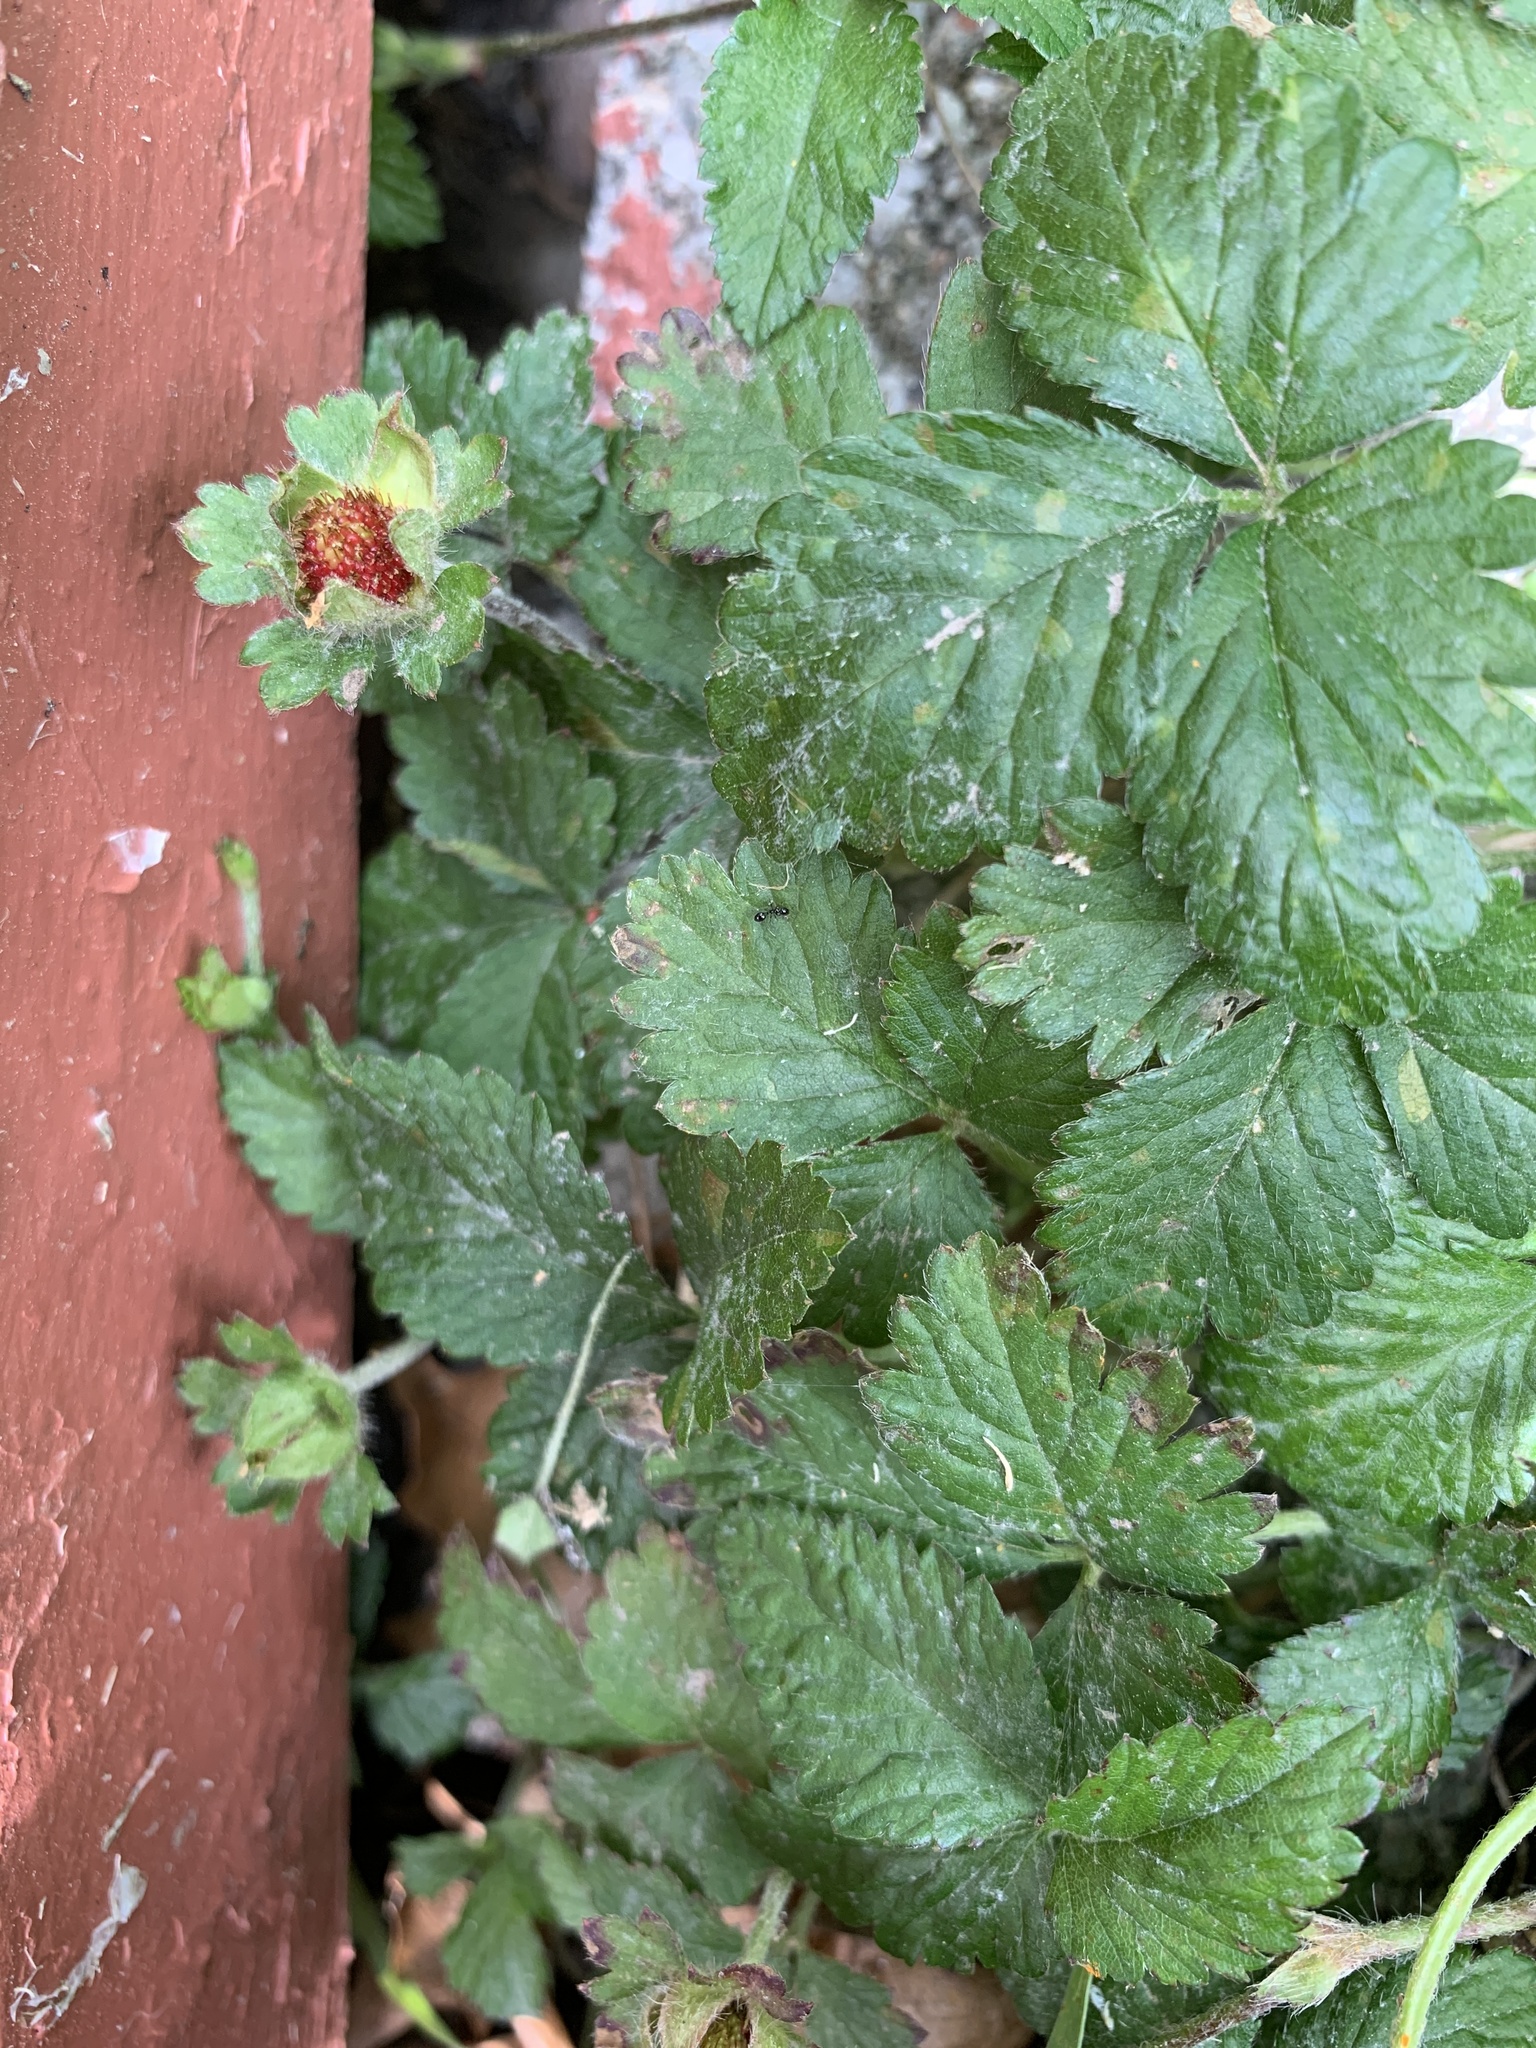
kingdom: Plantae
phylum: Tracheophyta
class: Magnoliopsida
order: Rosales
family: Rosaceae
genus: Potentilla
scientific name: Potentilla indica
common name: Yellow-flowered strawberry
